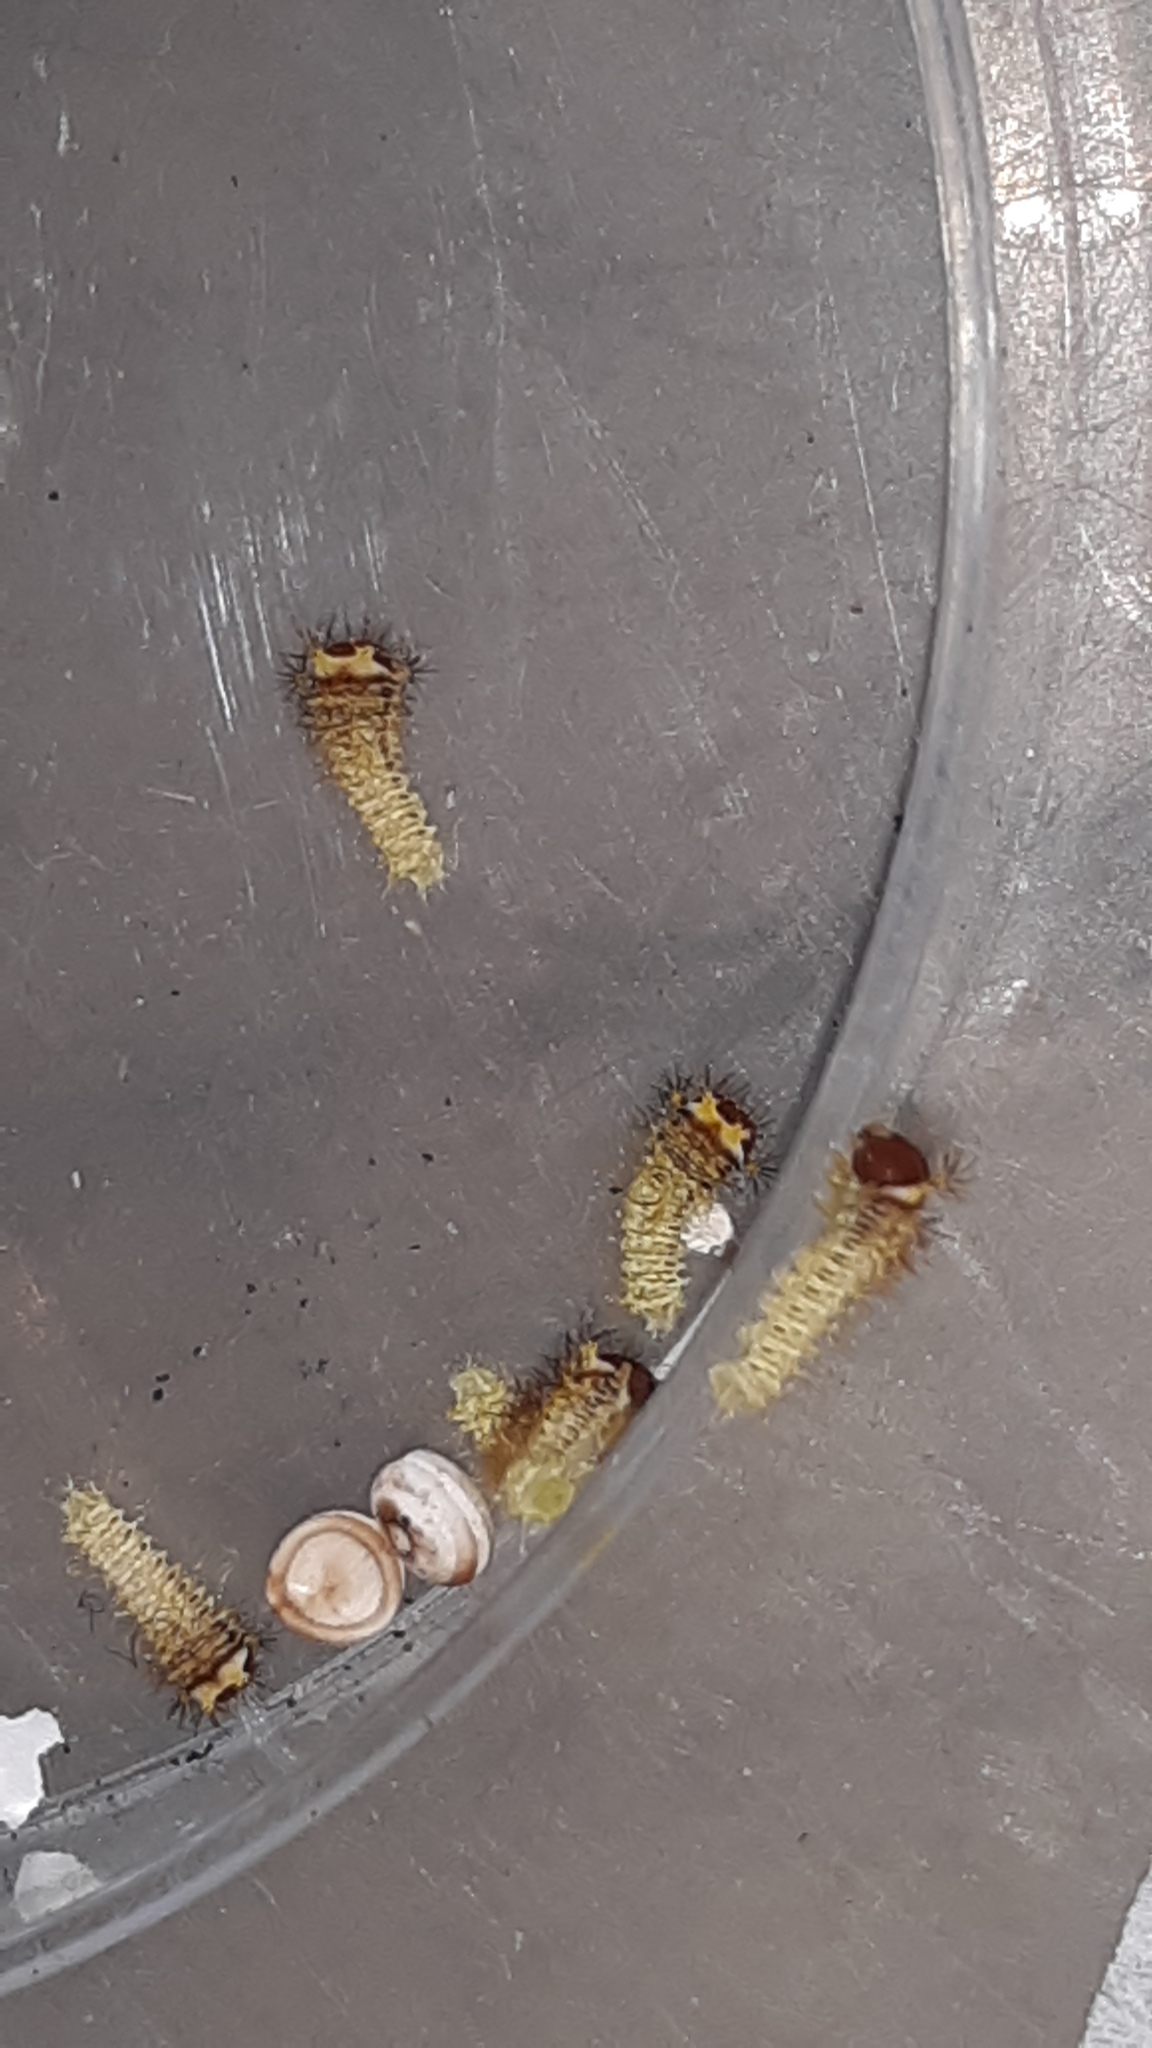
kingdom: Animalia
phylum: Arthropoda
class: Insecta
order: Lepidoptera
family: Saturniidae
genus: Antheraea
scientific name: Antheraea polyphemus
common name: Polyphemus moth
